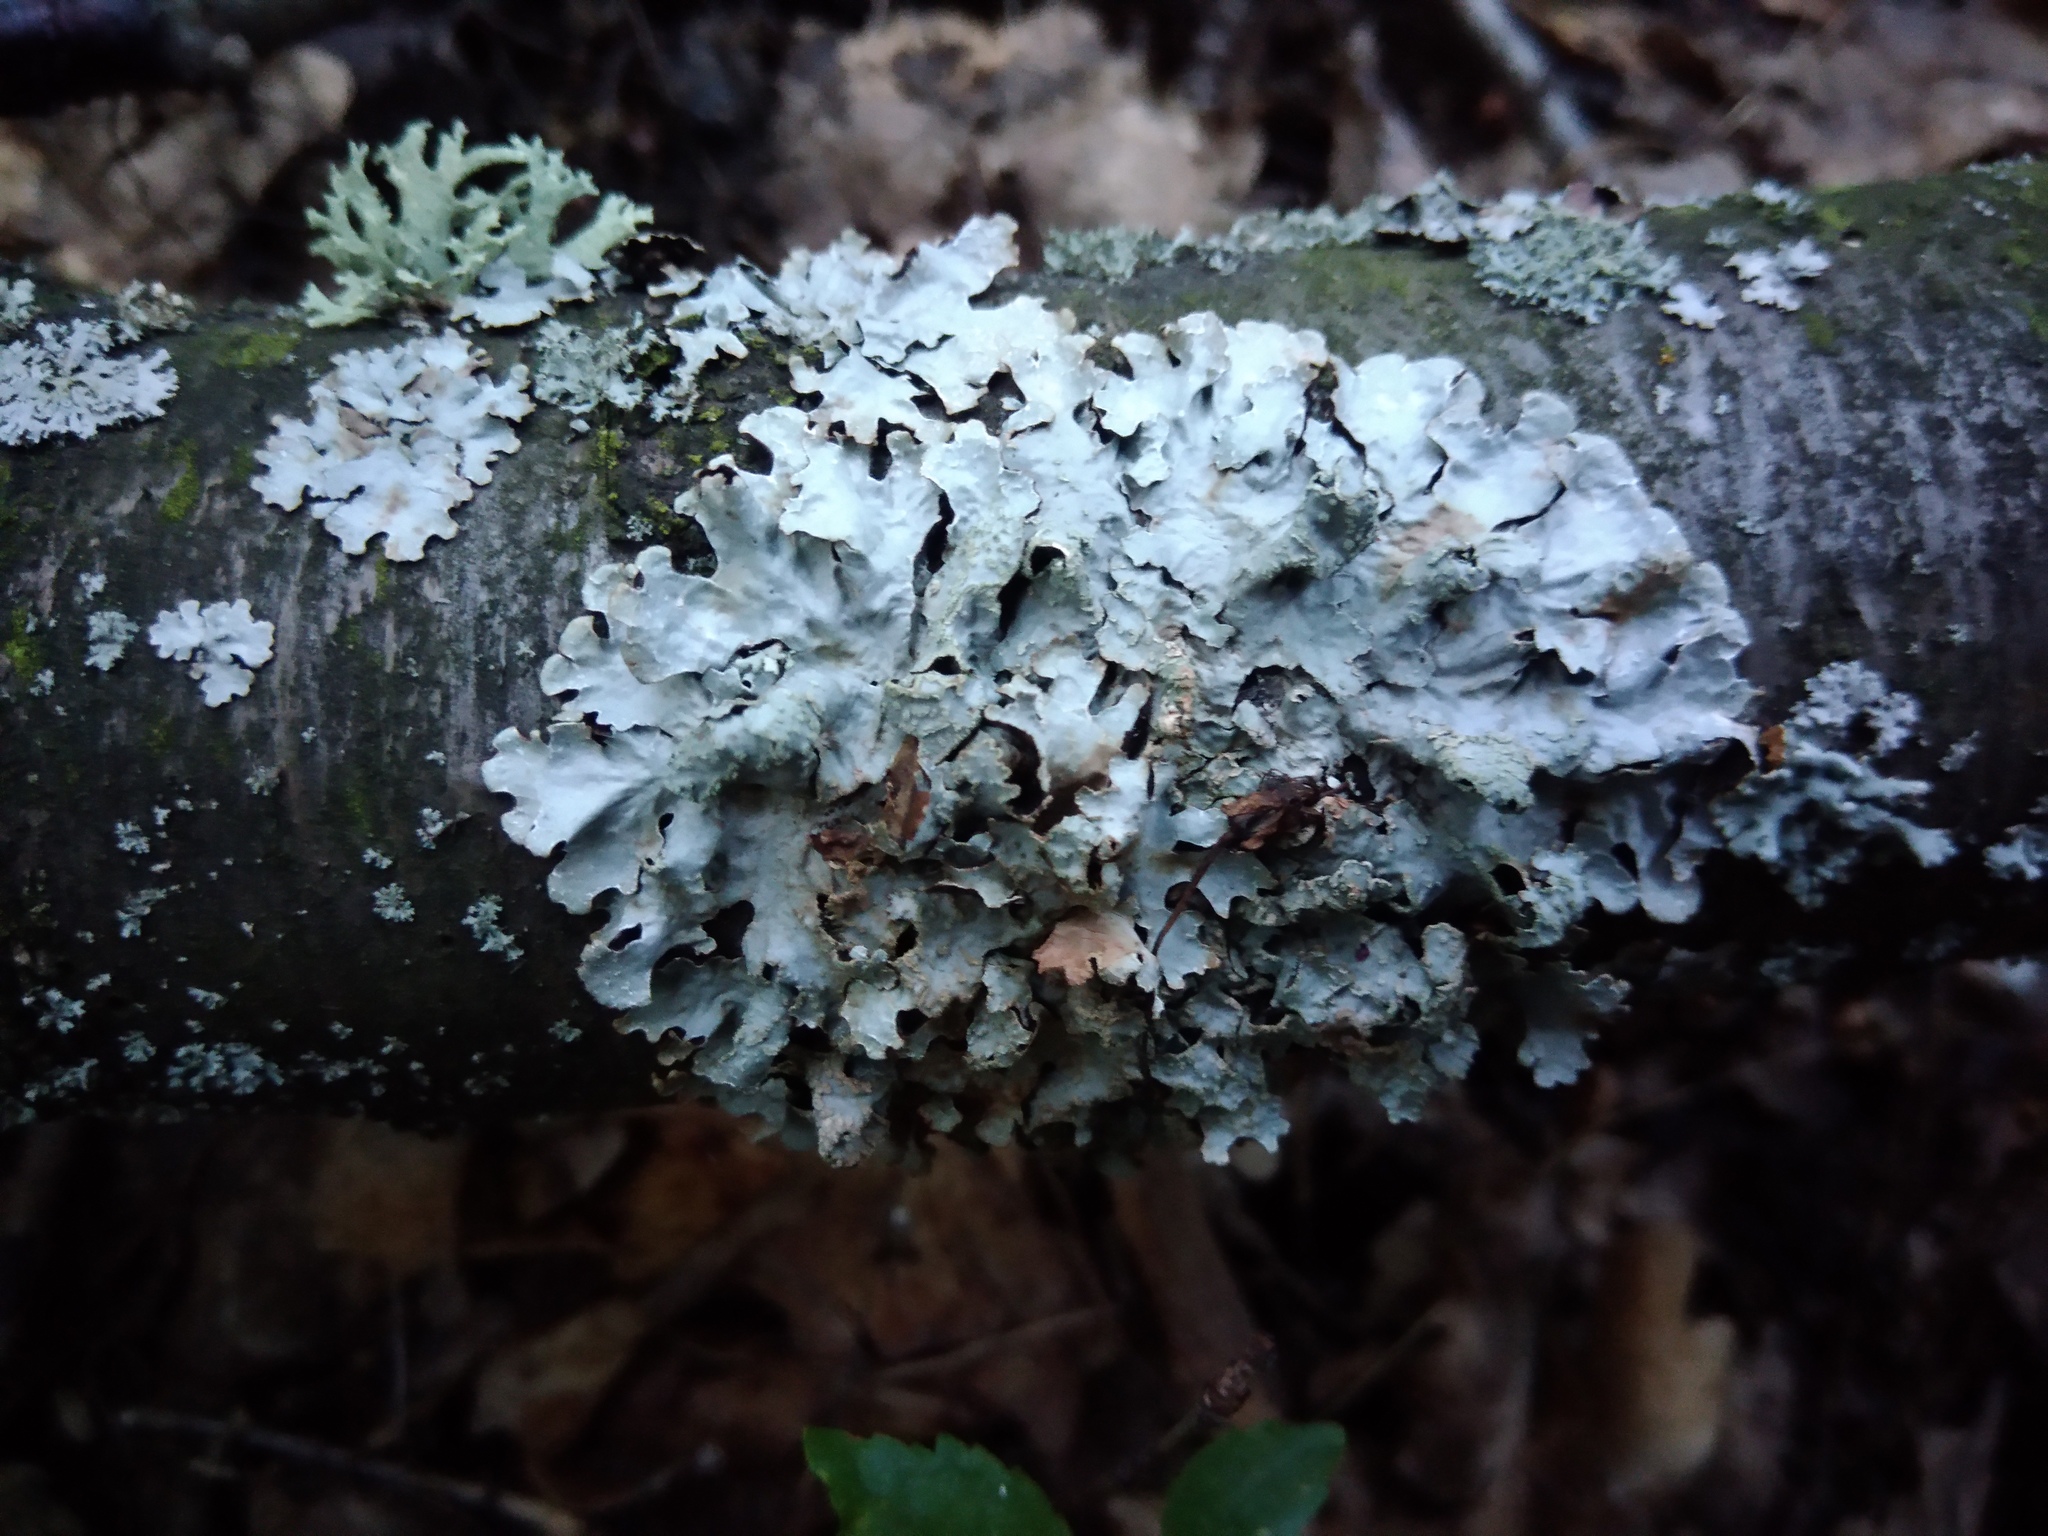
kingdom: Fungi
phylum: Ascomycota
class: Lecanoromycetes
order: Lecanorales
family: Parmeliaceae
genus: Parmelia
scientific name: Parmelia sulcata
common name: Netted shield lichen
